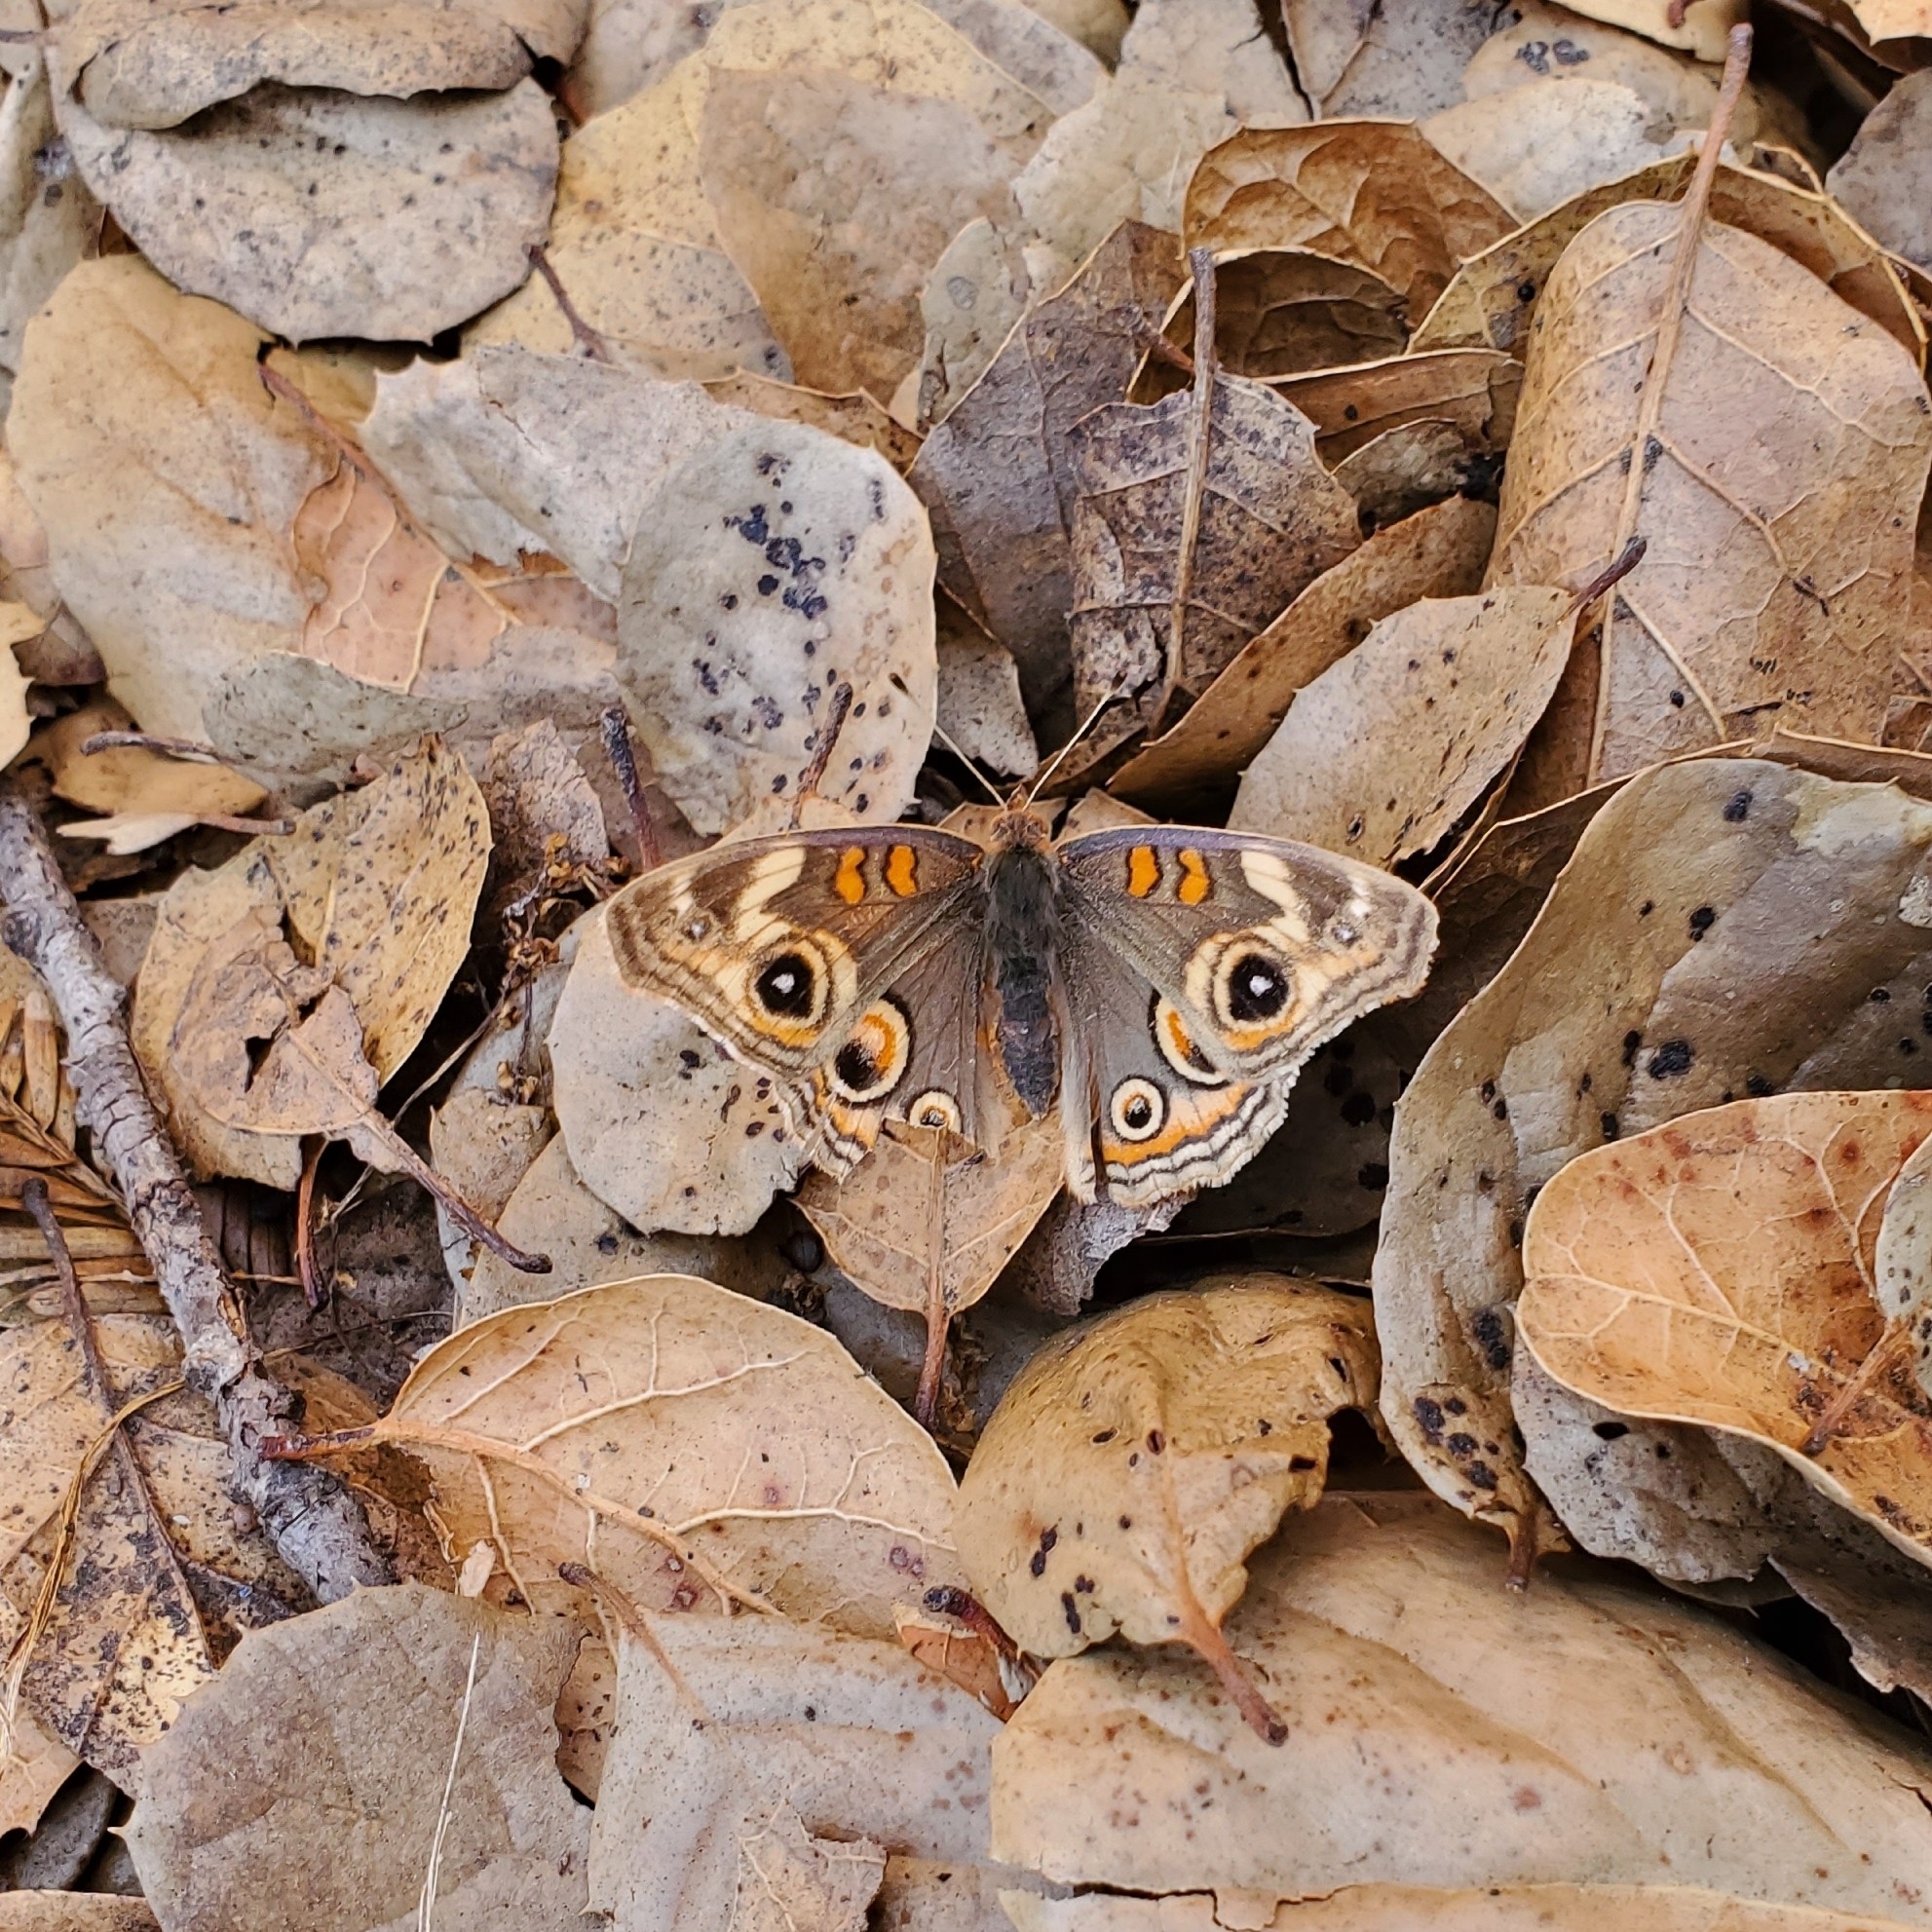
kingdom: Animalia
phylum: Arthropoda
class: Insecta
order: Lepidoptera
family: Nymphalidae
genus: Junonia
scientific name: Junonia grisea
